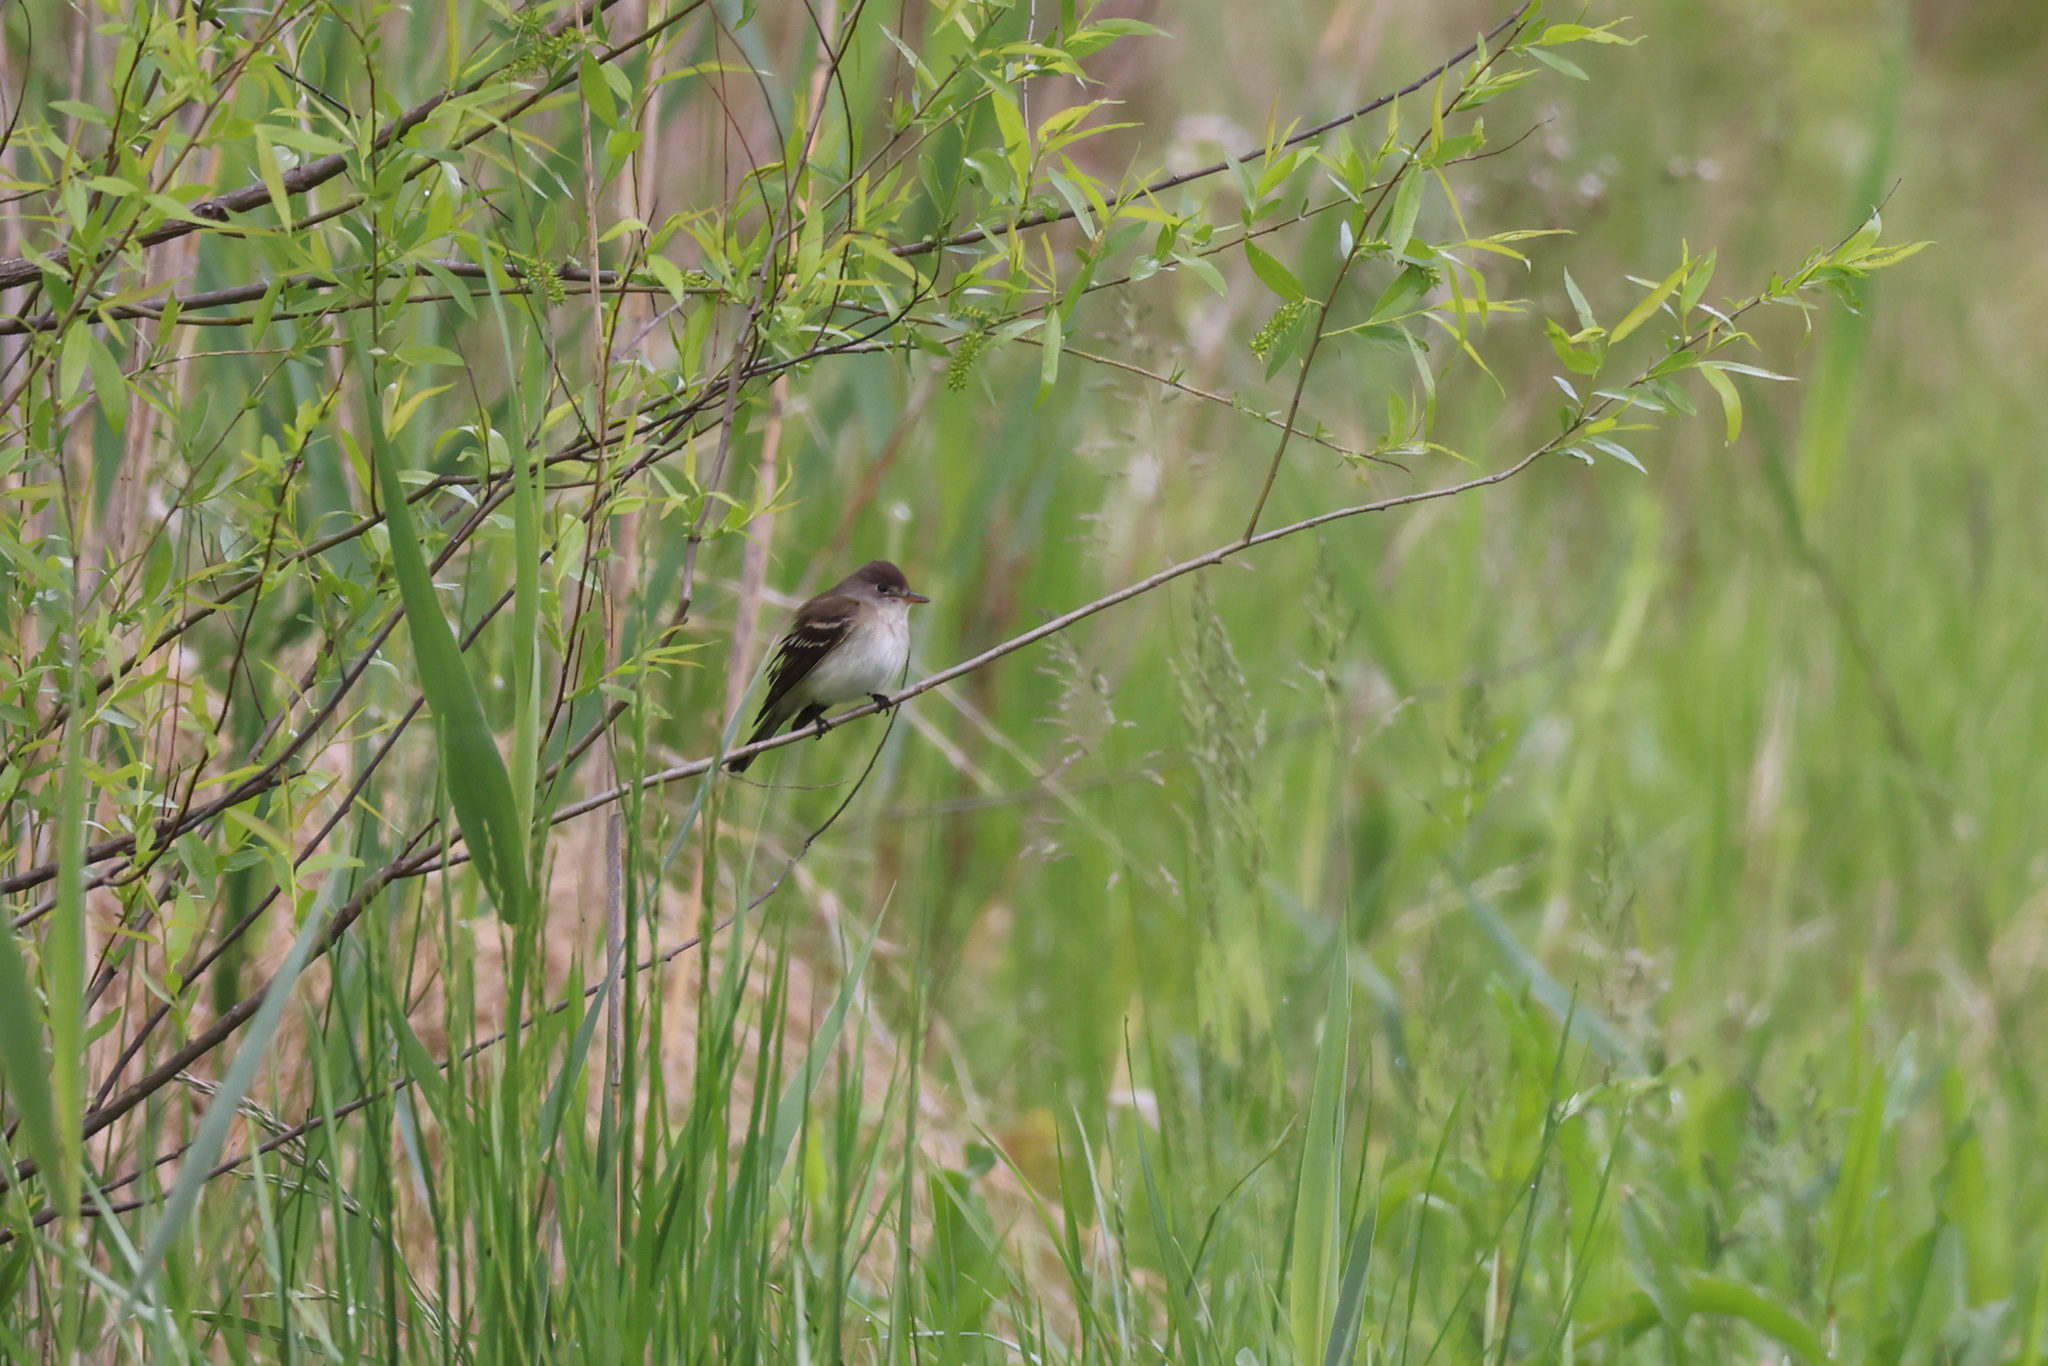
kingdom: Animalia
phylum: Chordata
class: Aves
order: Passeriformes
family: Tyrannidae
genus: Empidonax
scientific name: Empidonax traillii
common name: Willow flycatcher
